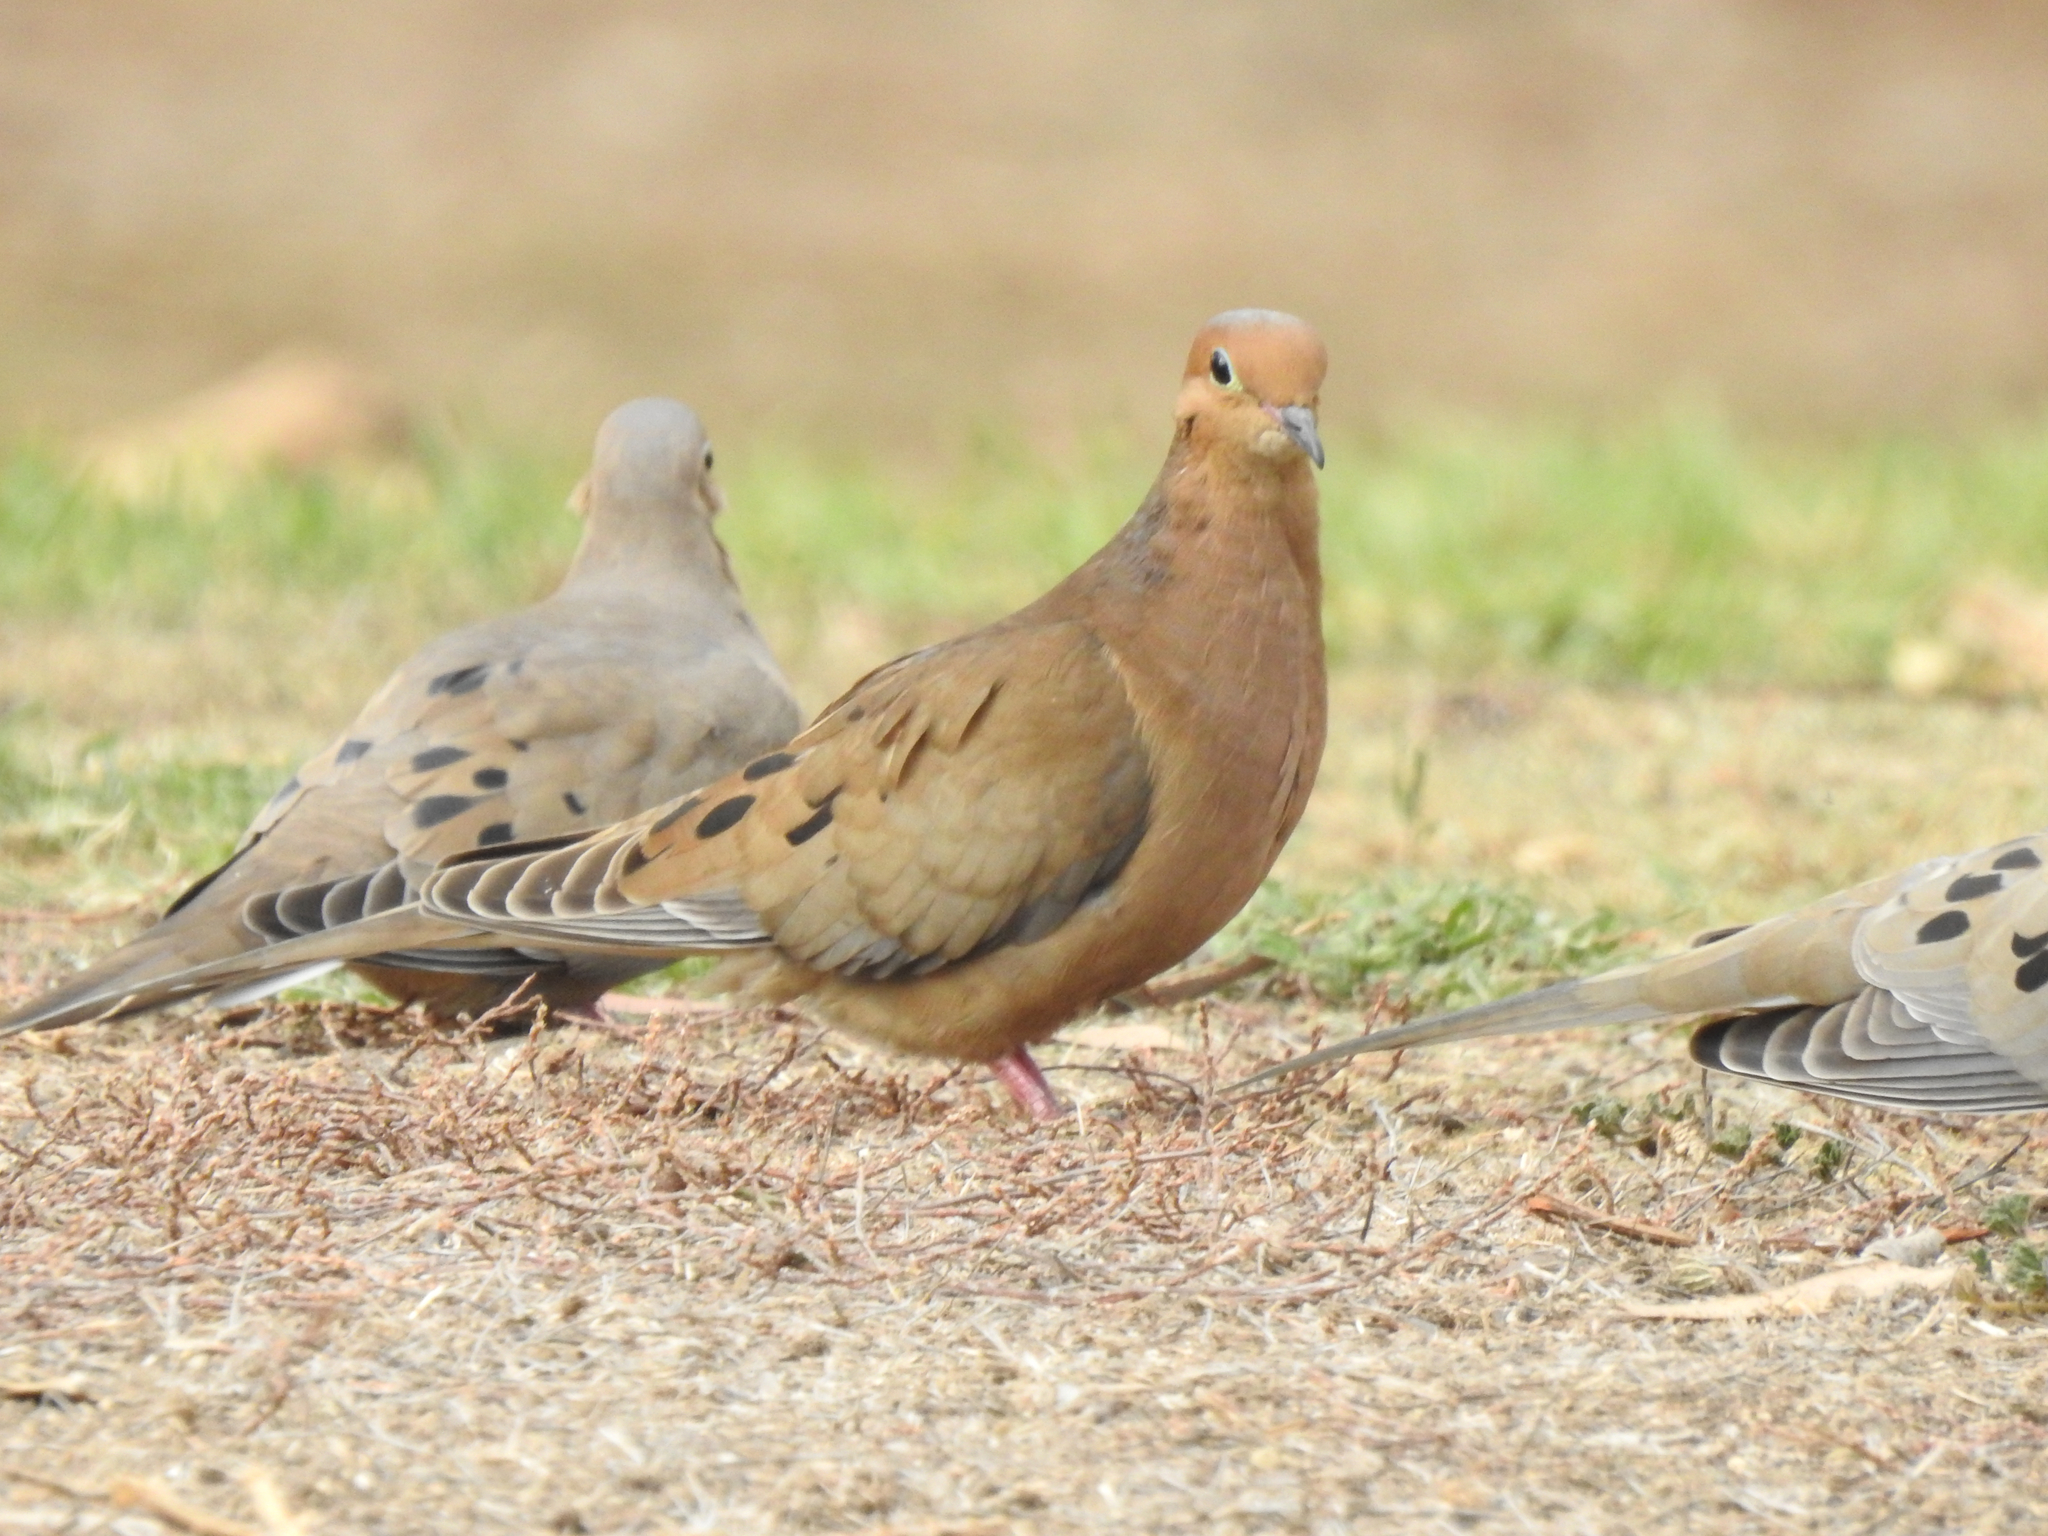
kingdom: Animalia
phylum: Chordata
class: Aves
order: Columbiformes
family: Columbidae
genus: Zenaida
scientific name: Zenaida macroura
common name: Mourning dove
